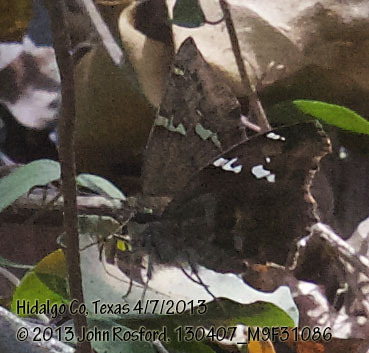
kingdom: Animalia
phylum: Arthropoda
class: Insecta
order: Lepidoptera
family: Hesperiidae
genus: Autochton
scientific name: Autochton potrillo
